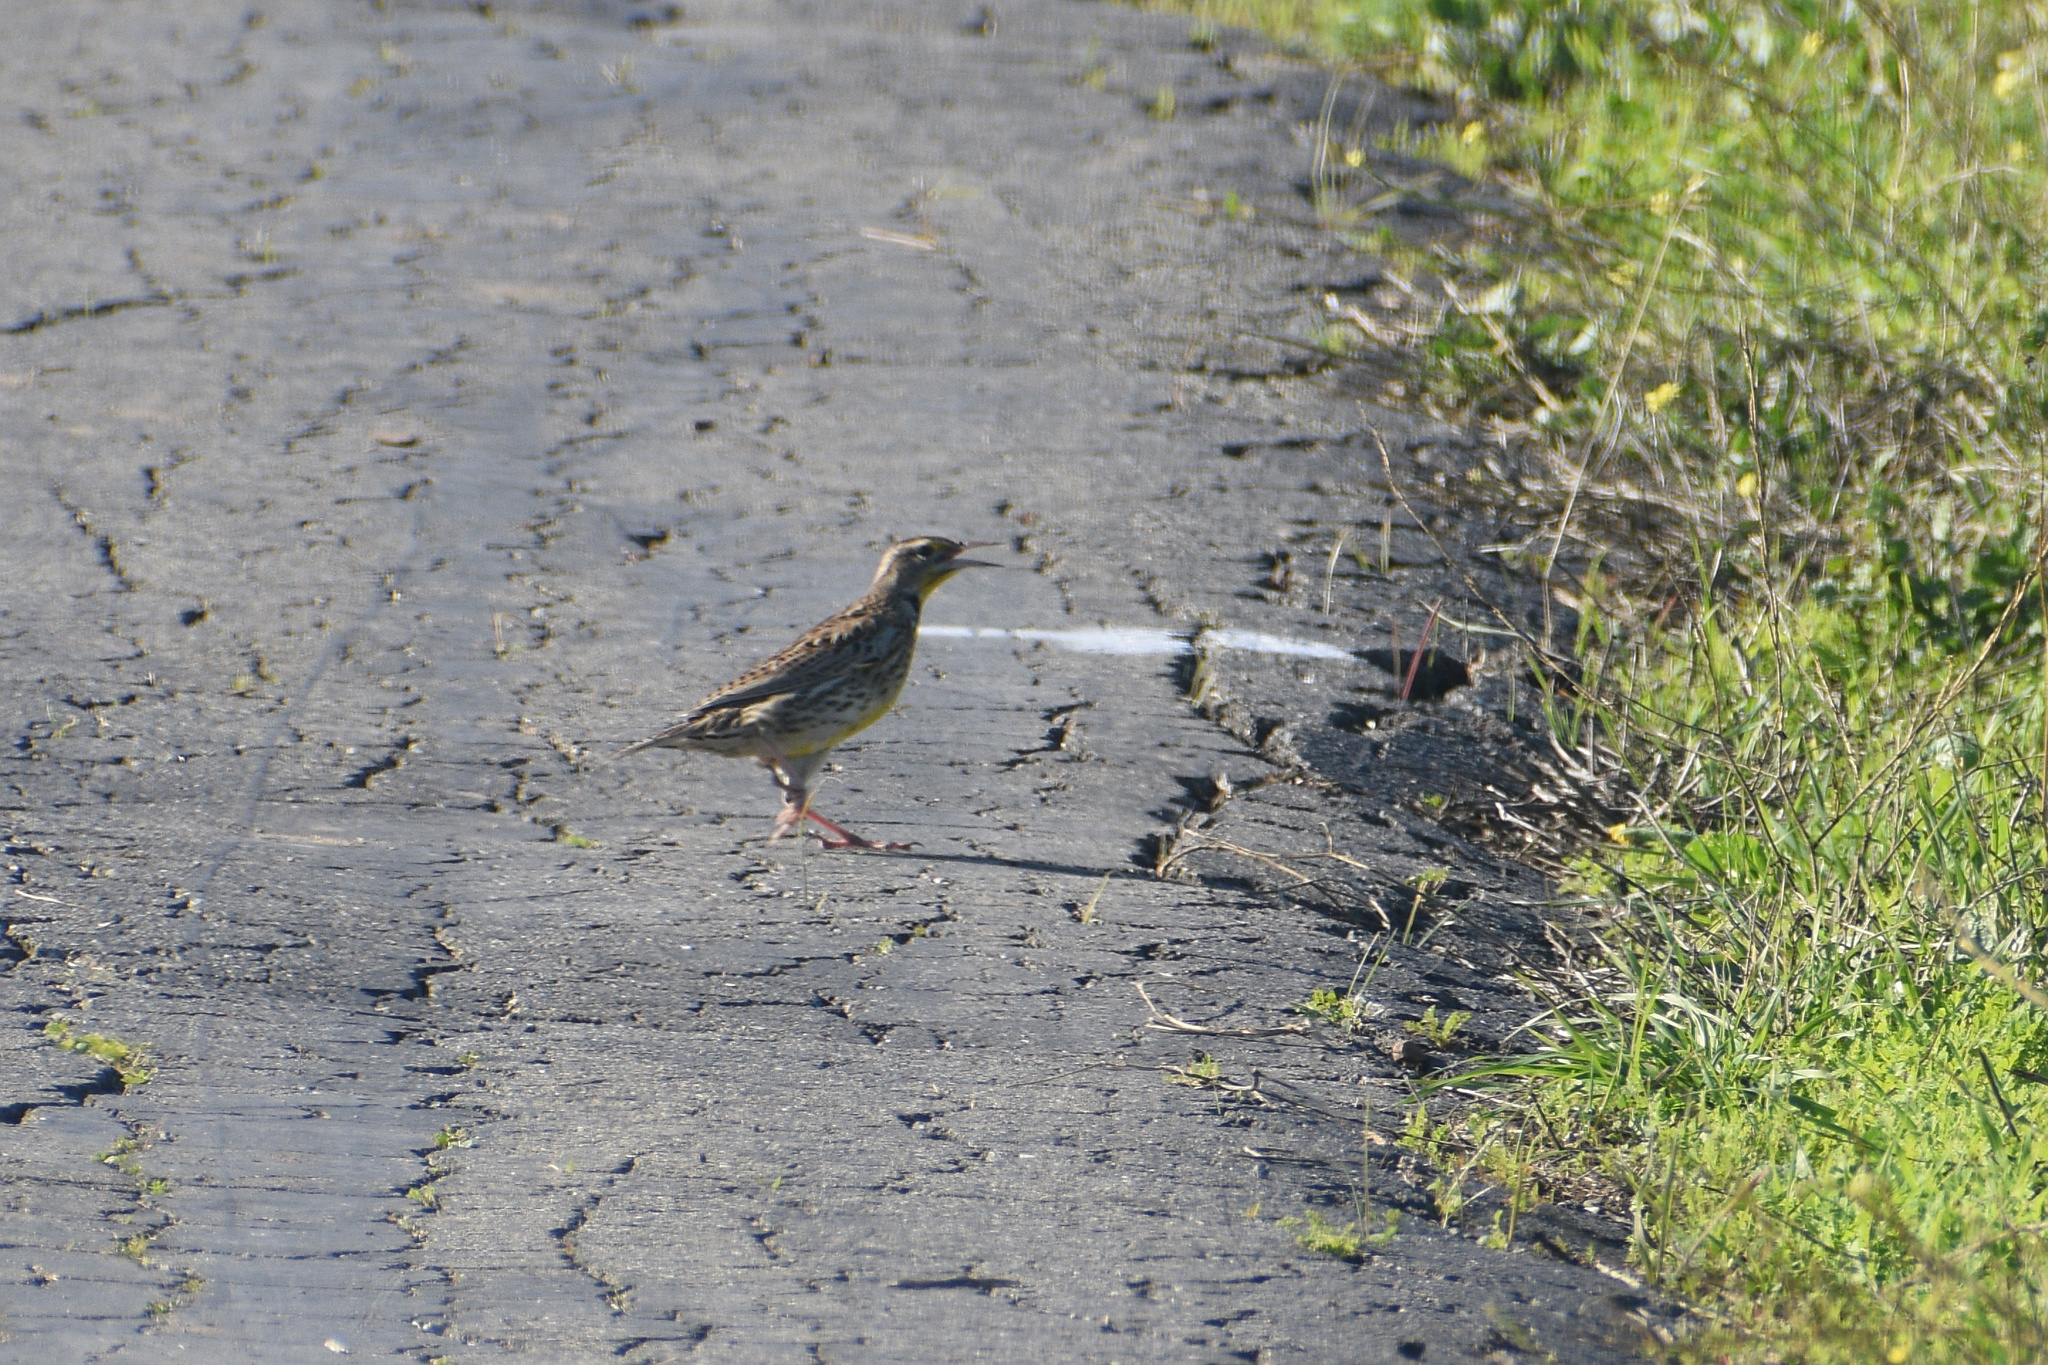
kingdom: Animalia
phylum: Chordata
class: Aves
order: Passeriformes
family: Icteridae
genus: Sturnella
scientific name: Sturnella neglecta
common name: Western meadowlark
